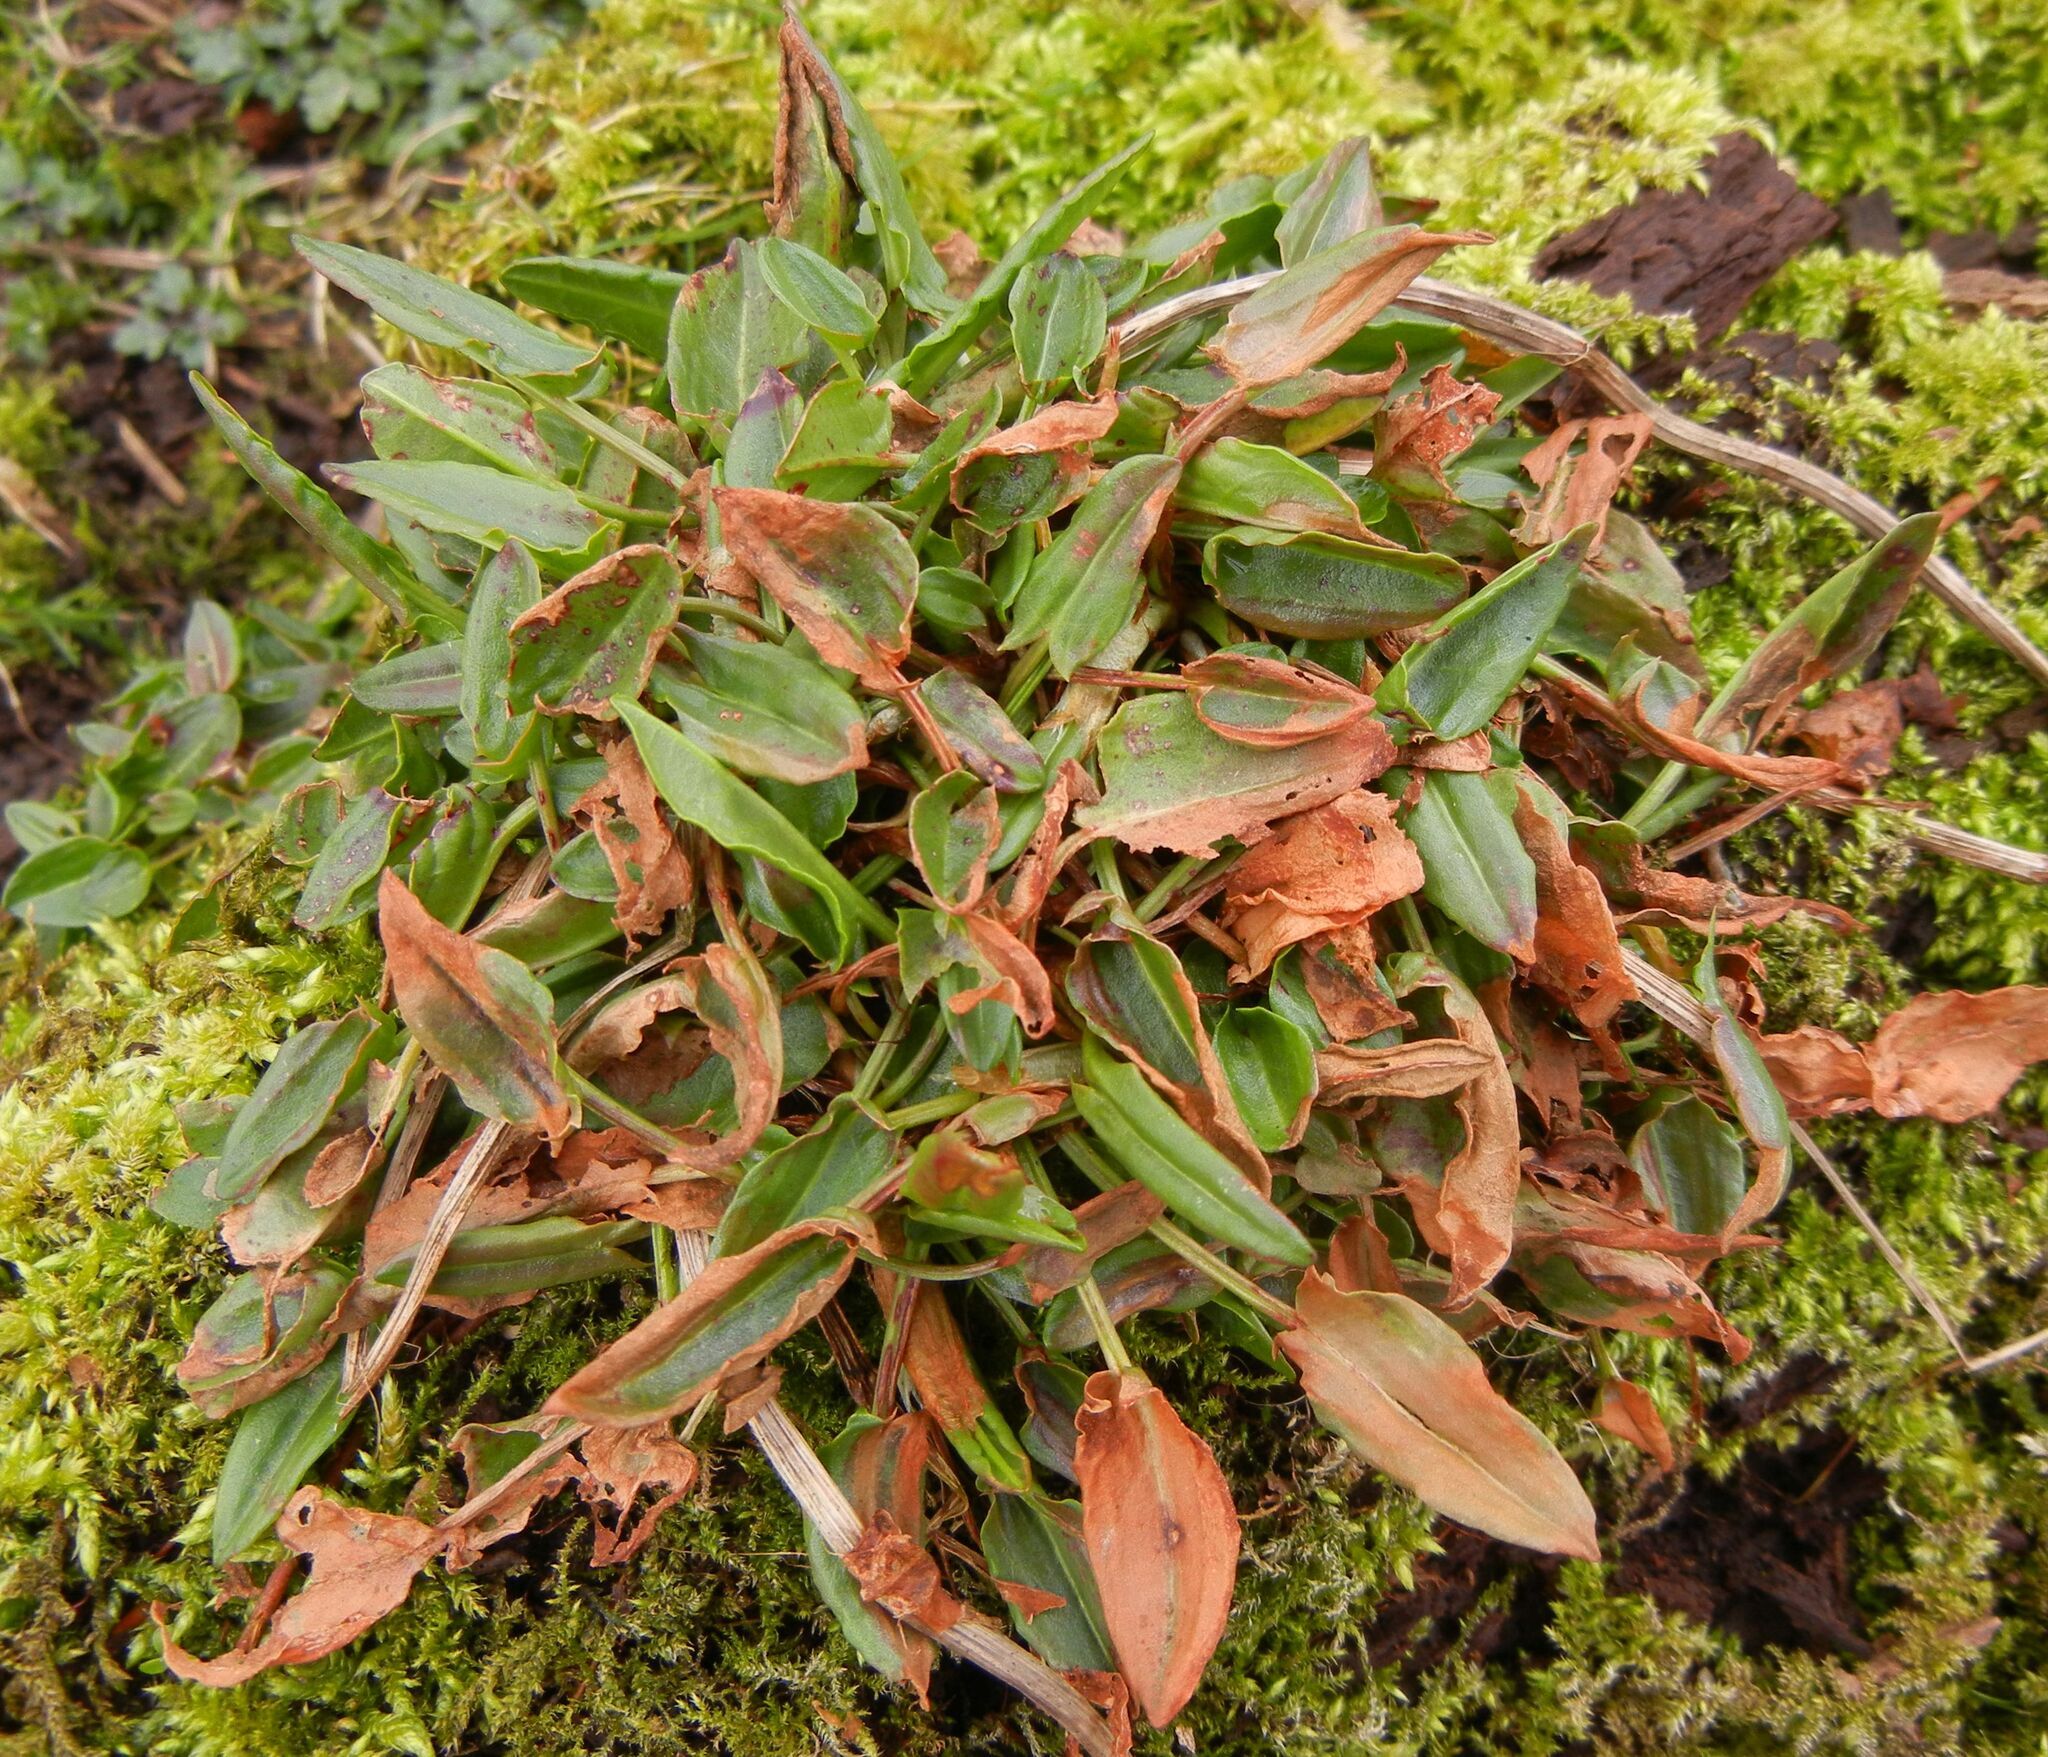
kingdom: Plantae
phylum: Tracheophyta
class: Magnoliopsida
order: Caryophyllales
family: Polygonaceae
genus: Rumex
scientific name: Rumex acetosa
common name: Garden sorrel
